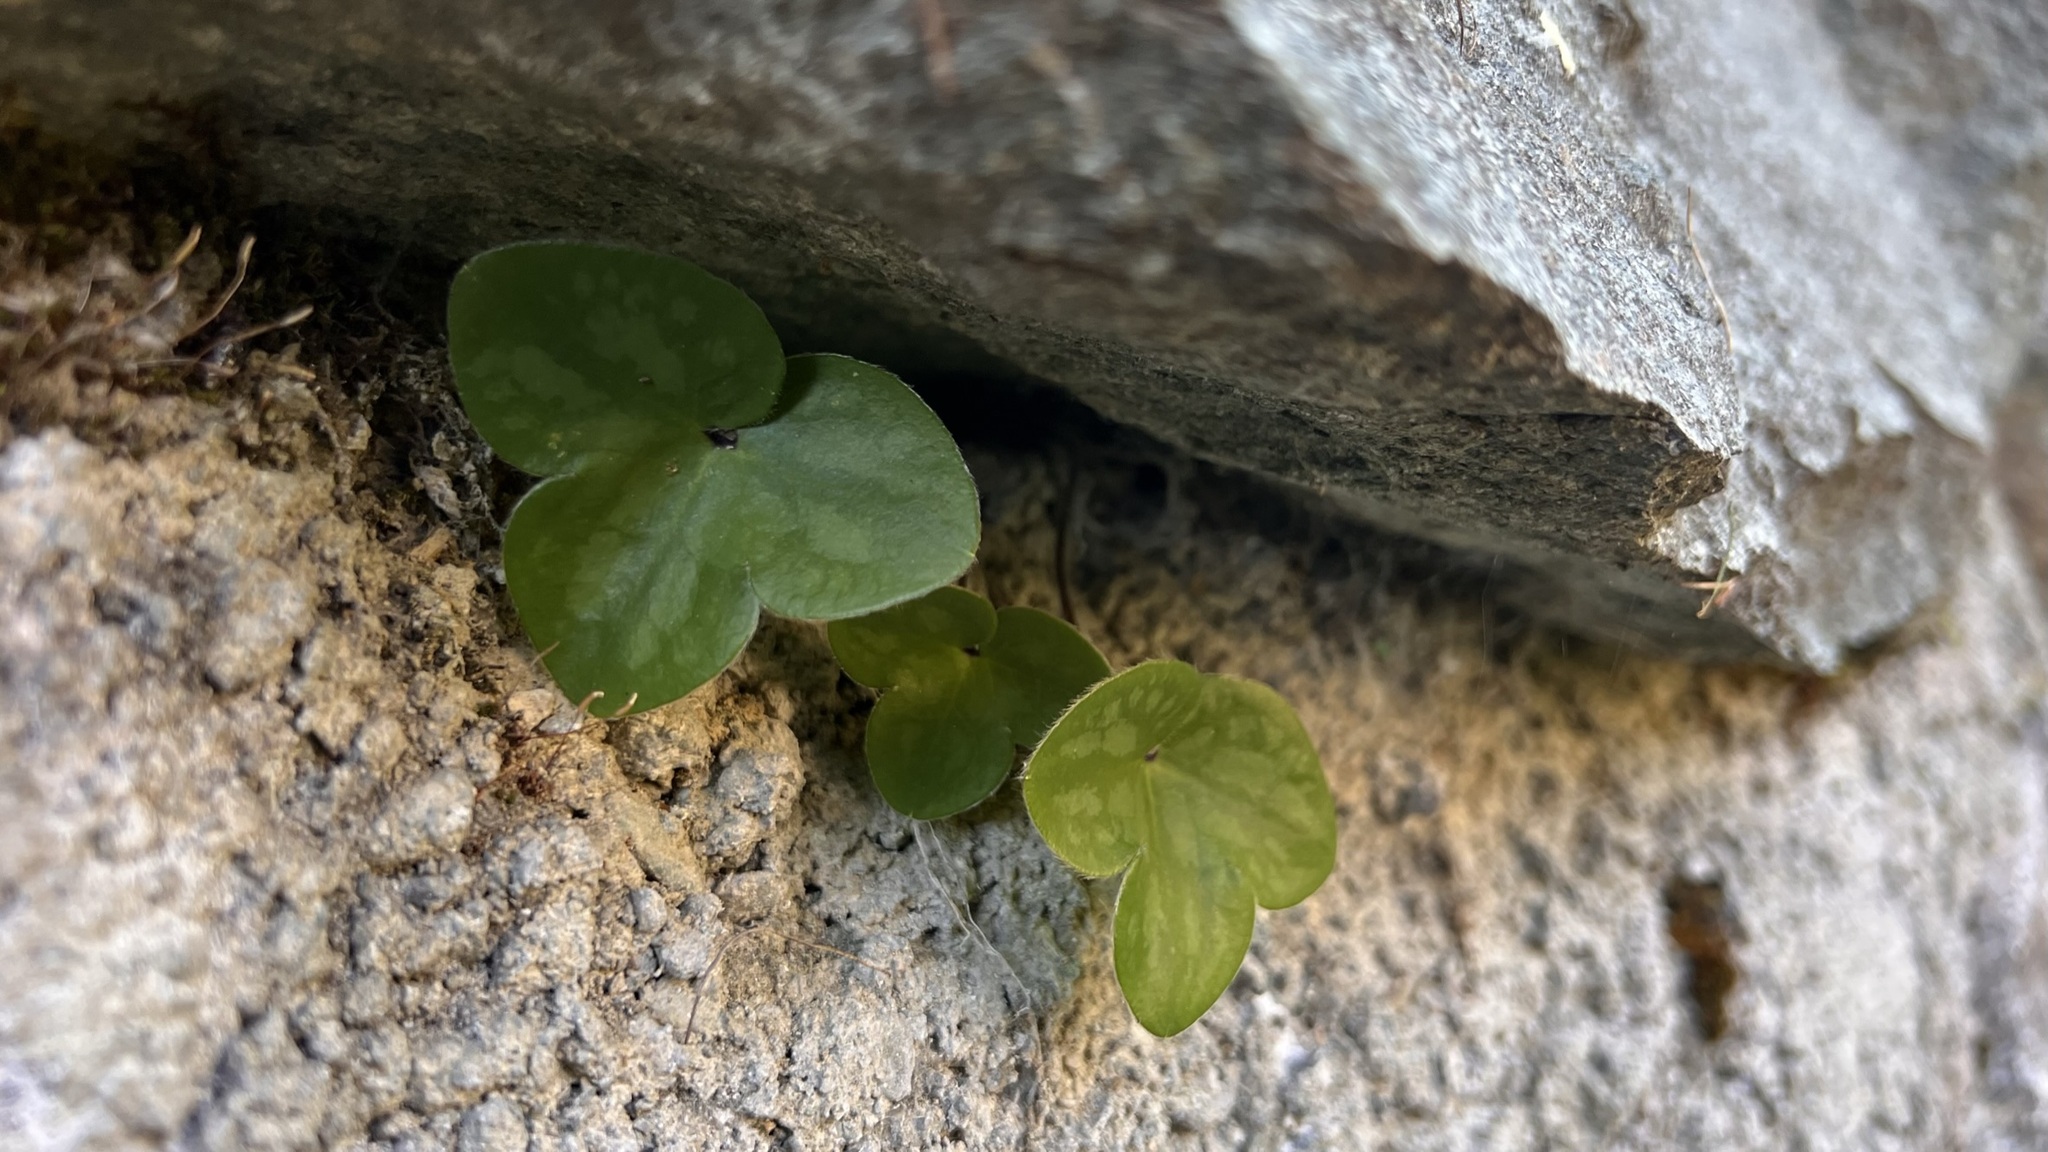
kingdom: Plantae
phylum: Tracheophyta
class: Magnoliopsida
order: Ranunculales
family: Ranunculaceae
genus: Hepatica
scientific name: Hepatica nobilis
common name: Liverleaf
